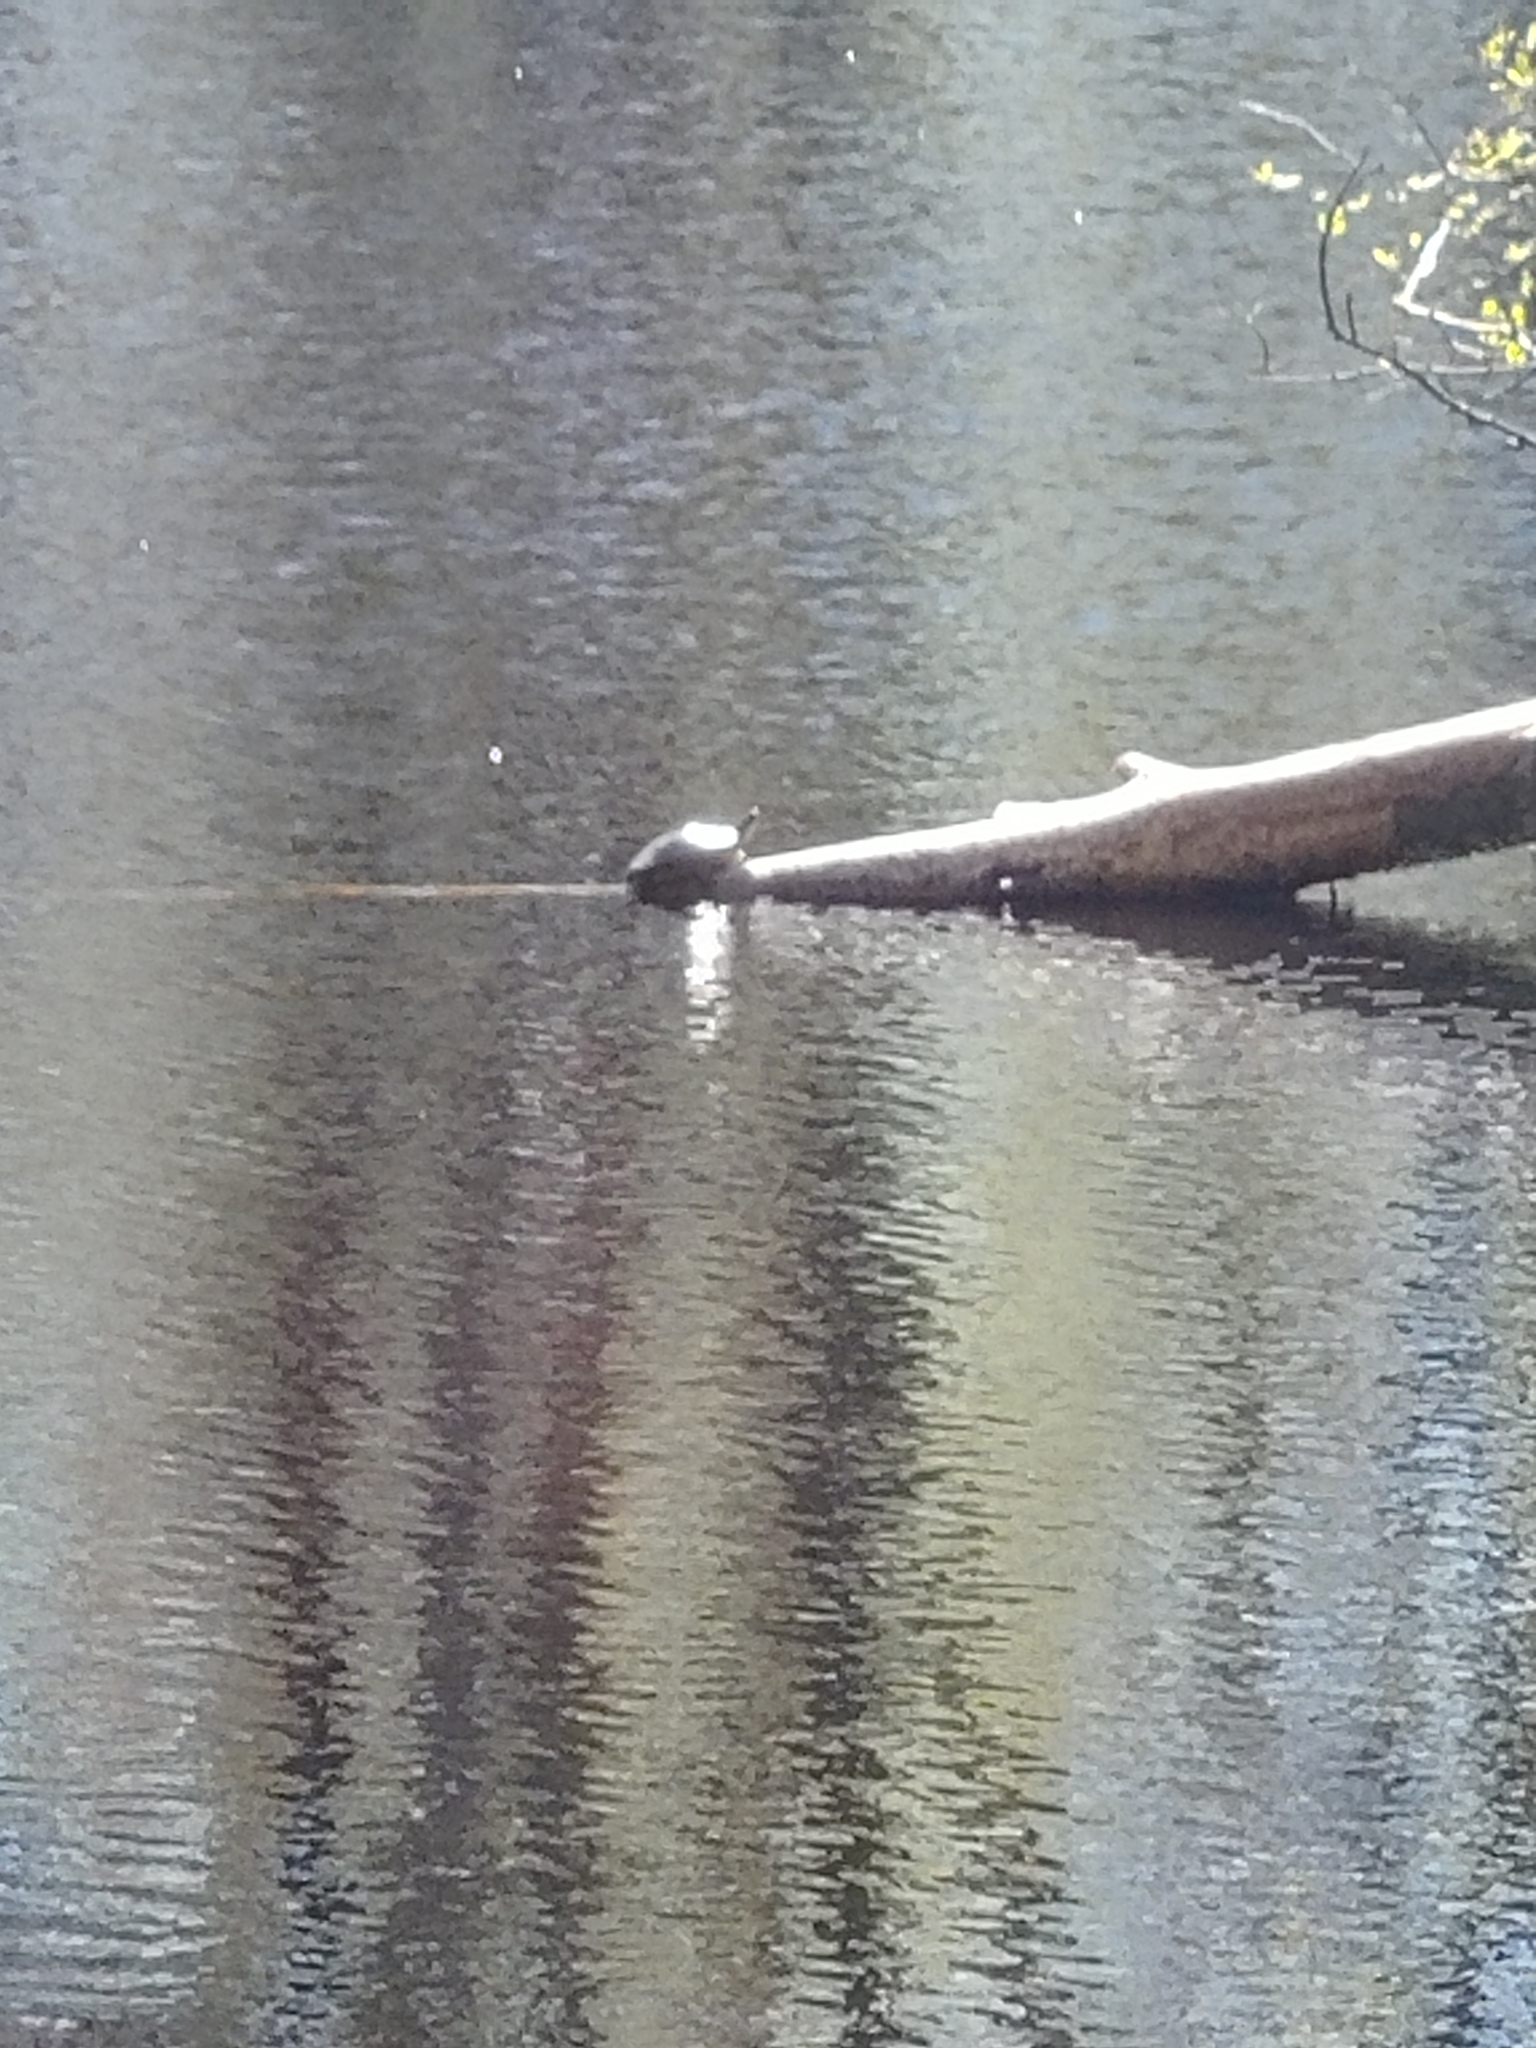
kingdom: Animalia
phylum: Chordata
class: Testudines
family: Emydidae
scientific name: Emydidae
